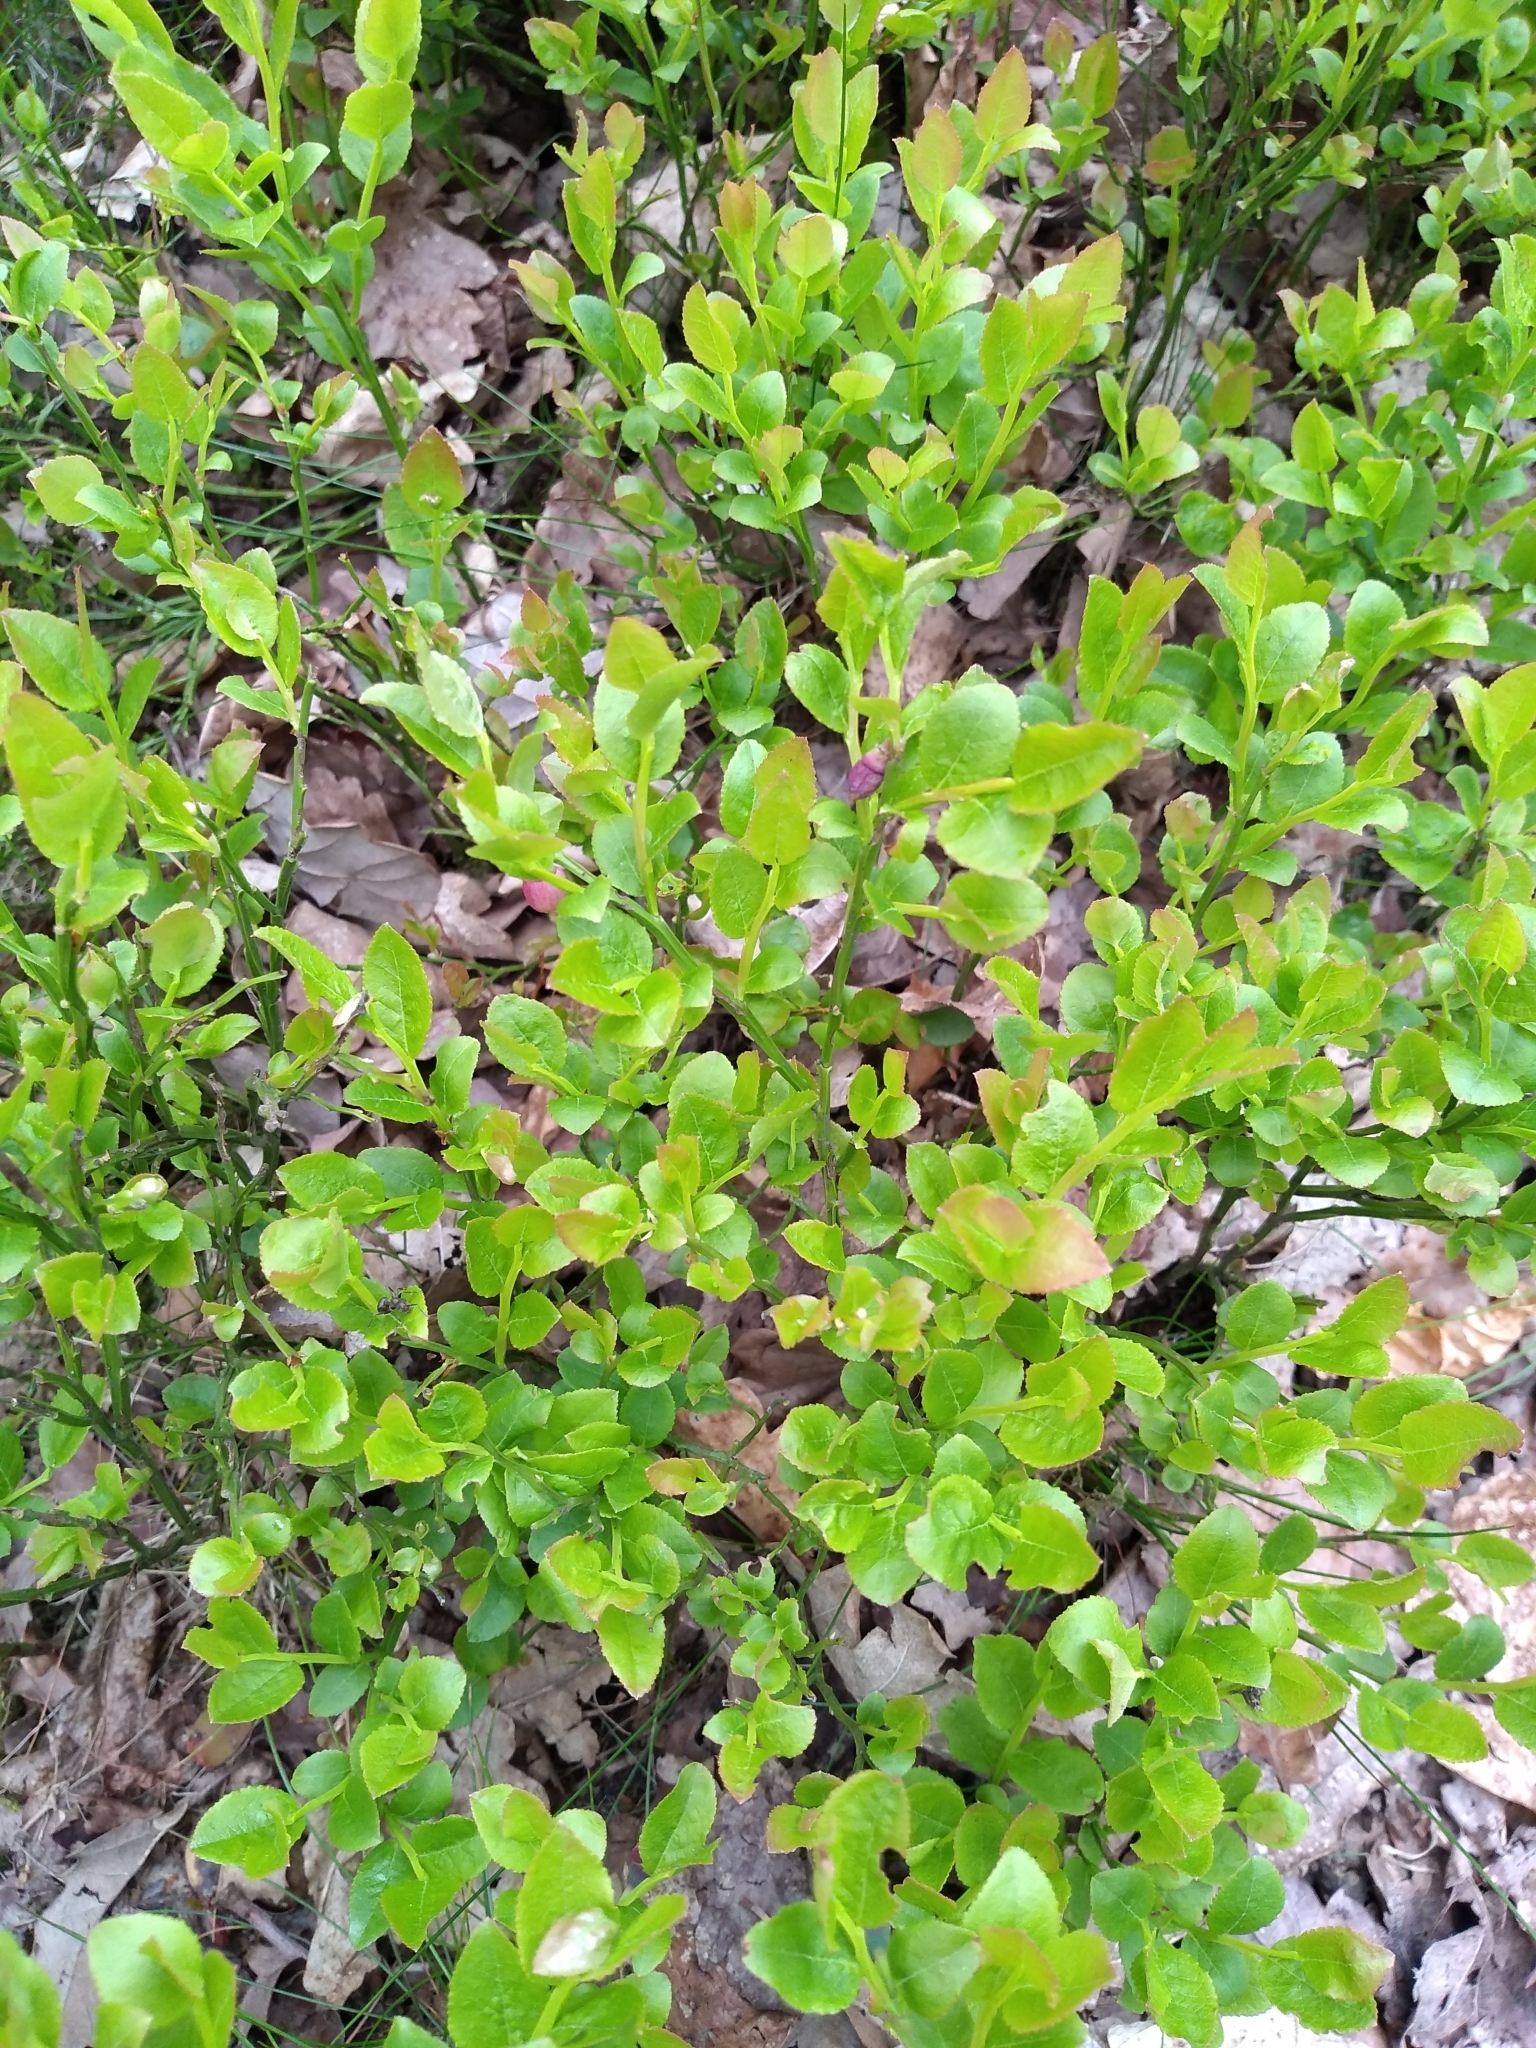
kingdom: Plantae
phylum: Tracheophyta
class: Magnoliopsida
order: Ericales
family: Ericaceae
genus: Vaccinium
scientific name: Vaccinium myrtillus
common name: Bilberry
